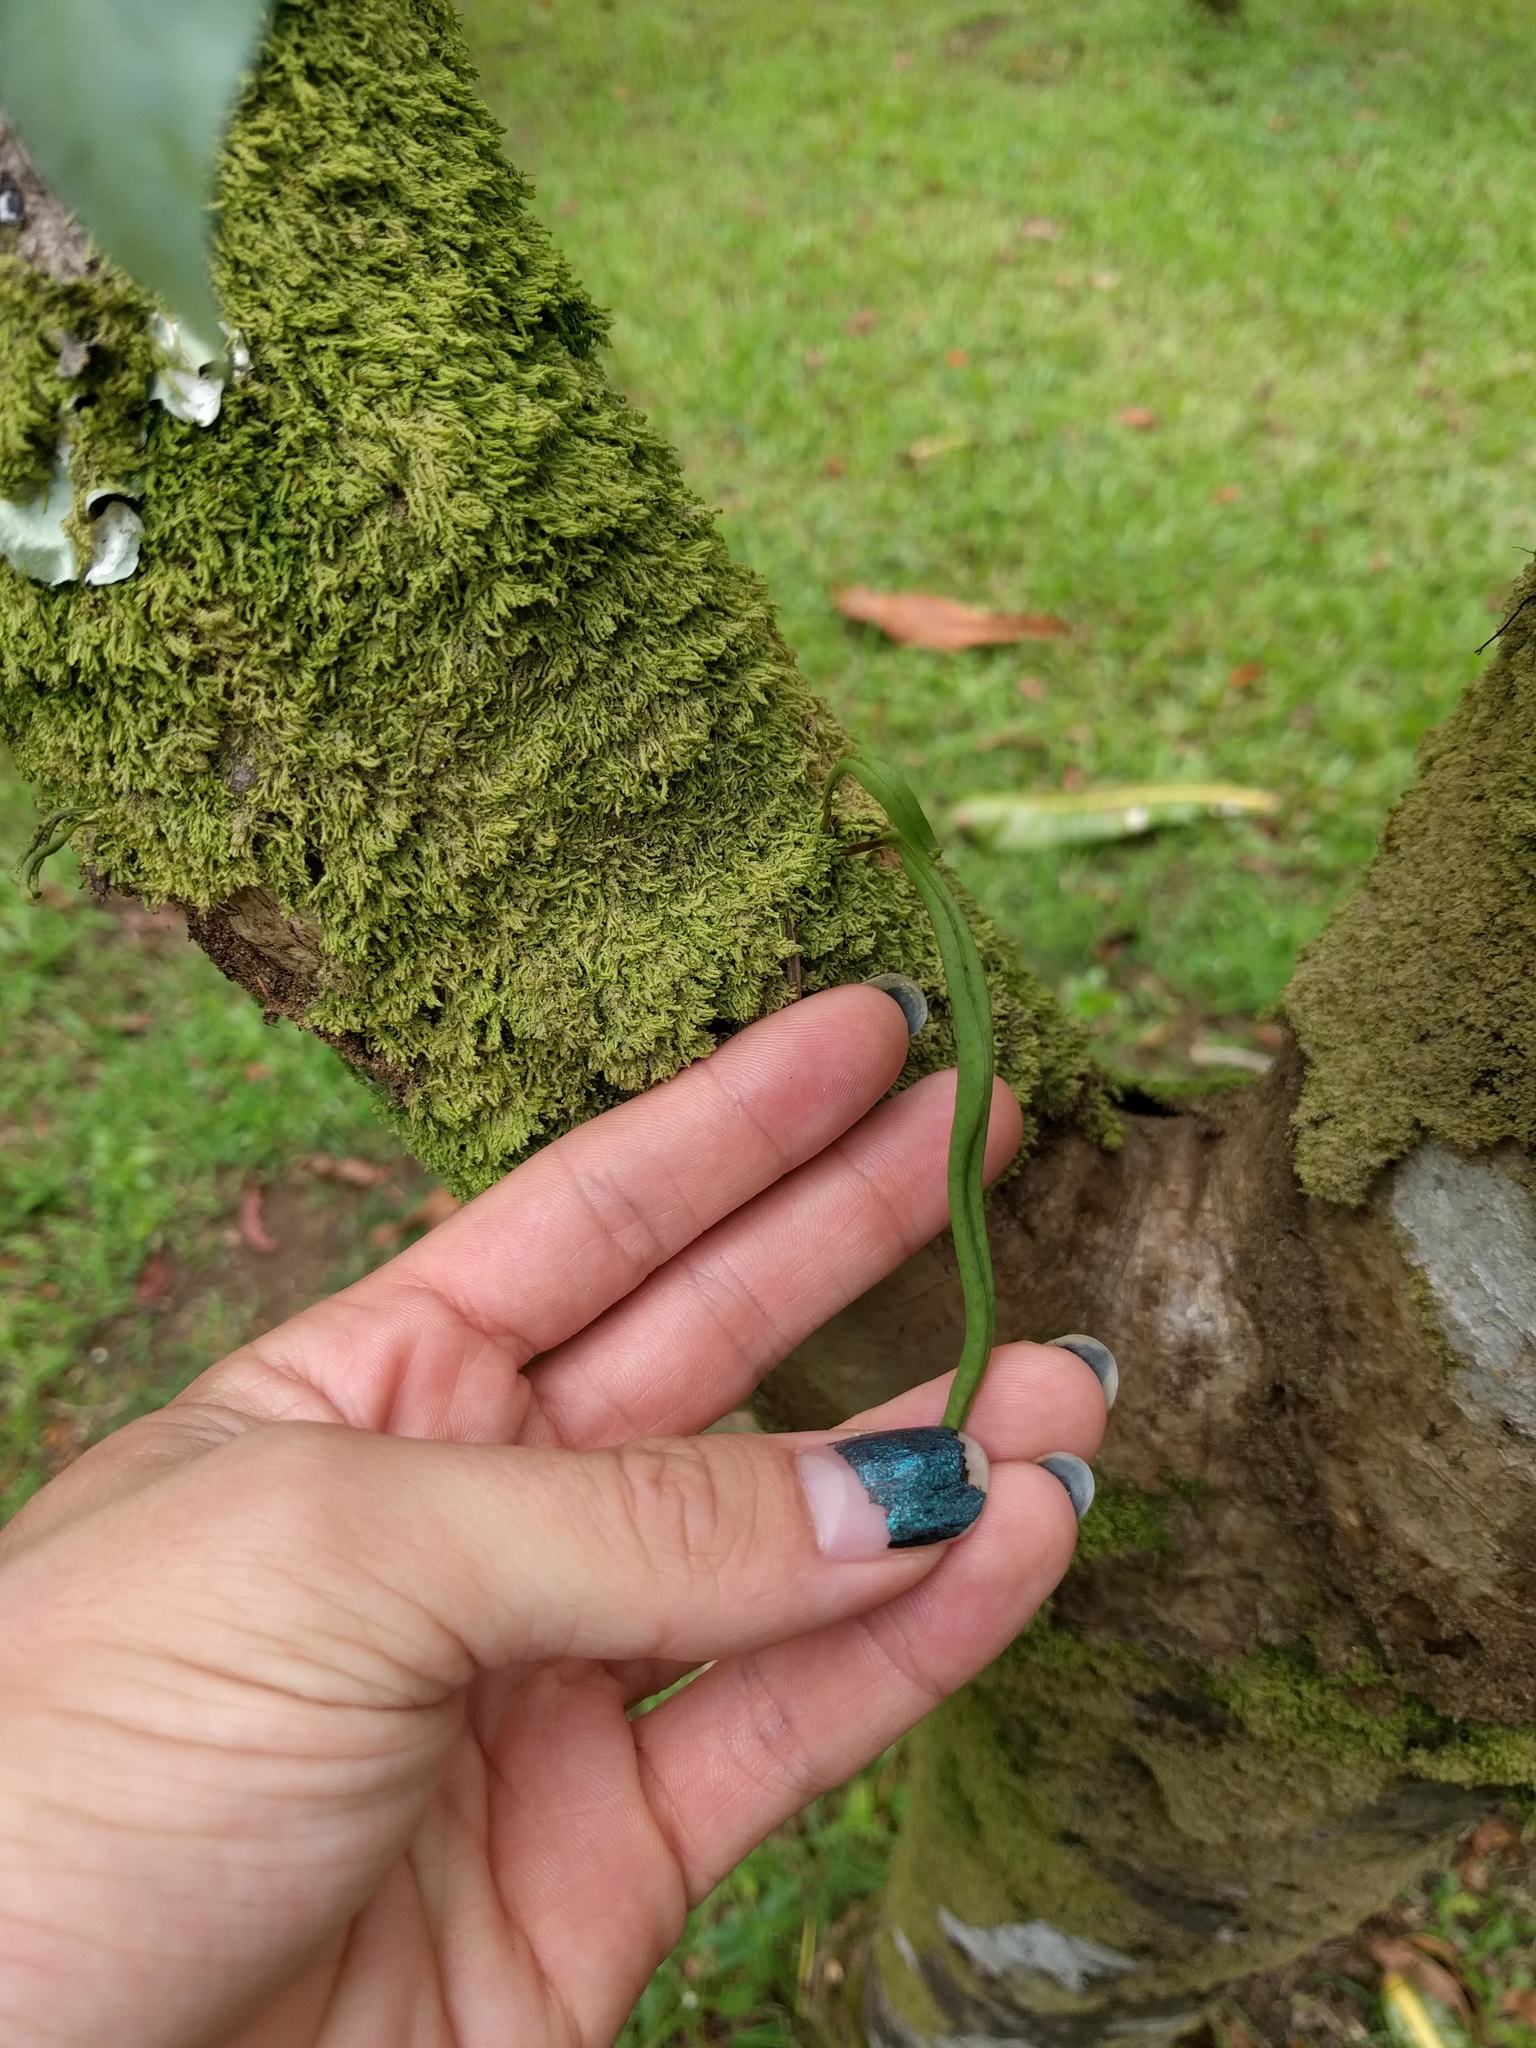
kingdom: Plantae
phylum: Tracheophyta
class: Polypodiopsida
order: Polypodiales
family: Polypodiaceae
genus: Lepisorus
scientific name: Lepisorus thunbergianus
